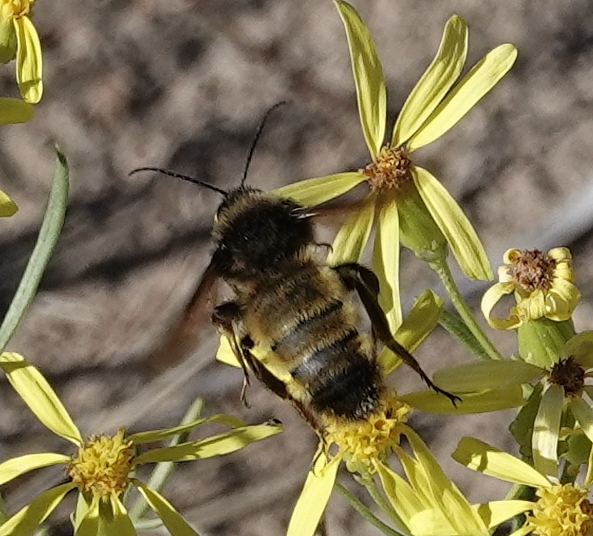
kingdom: Animalia
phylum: Arthropoda
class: Insecta
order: Hymenoptera
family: Apidae
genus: Bombus
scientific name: Bombus pensylvanicus
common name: Bumble bee
